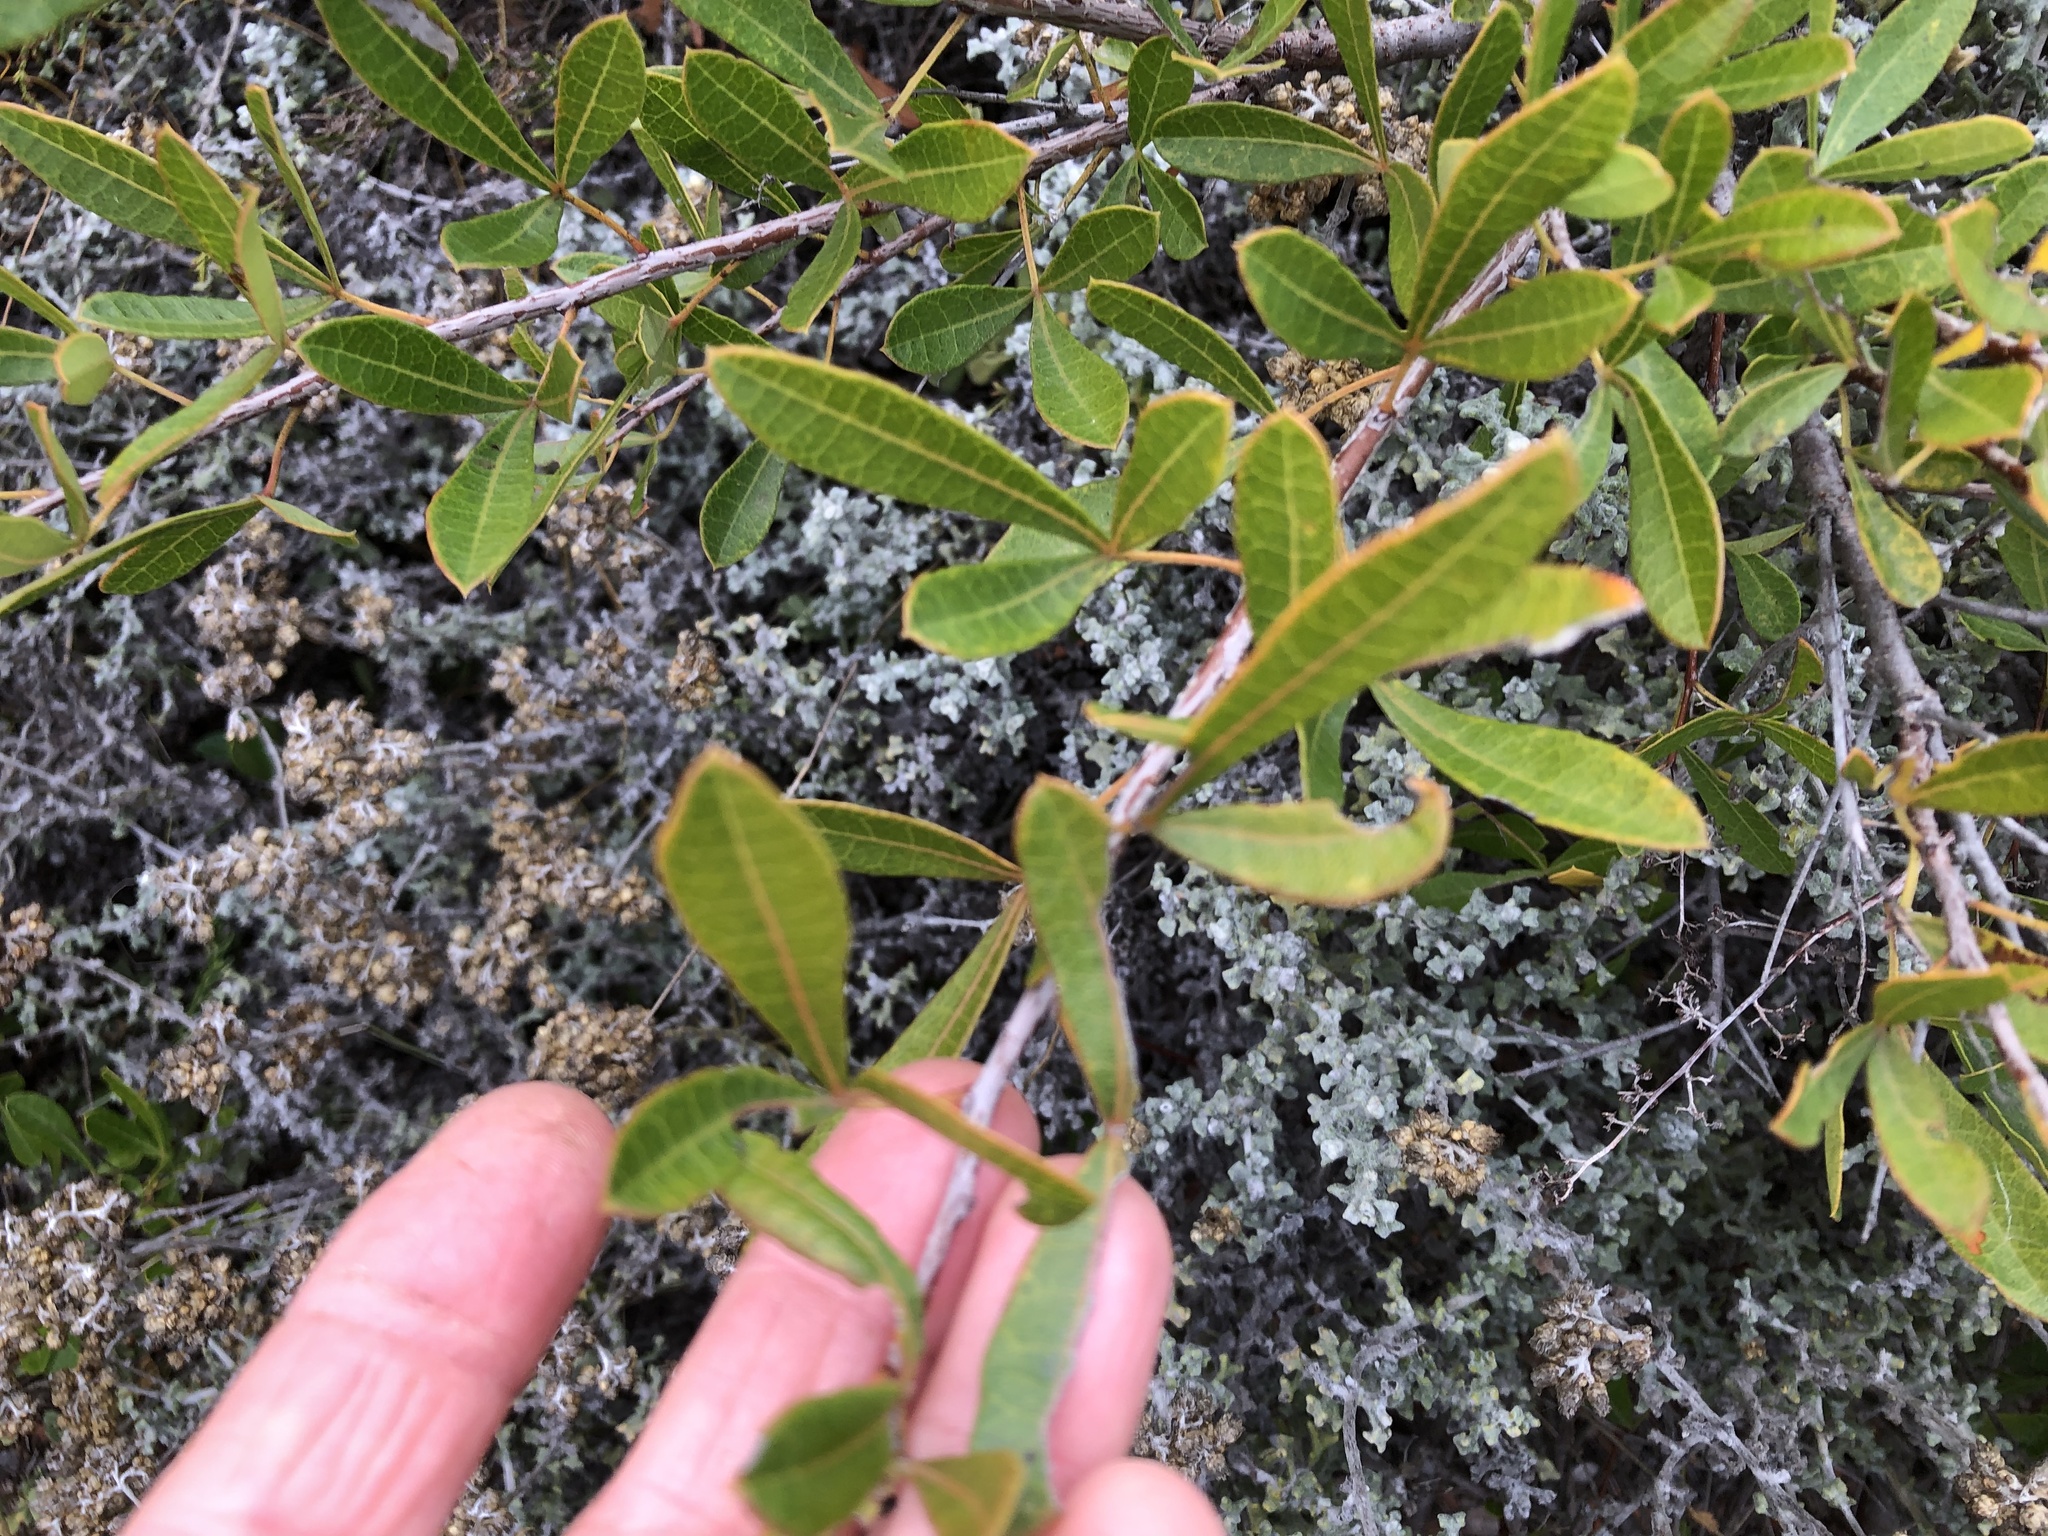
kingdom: Plantae
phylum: Tracheophyta
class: Magnoliopsida
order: Sapindales
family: Anacardiaceae
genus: Searsia
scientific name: Searsia laevigata
